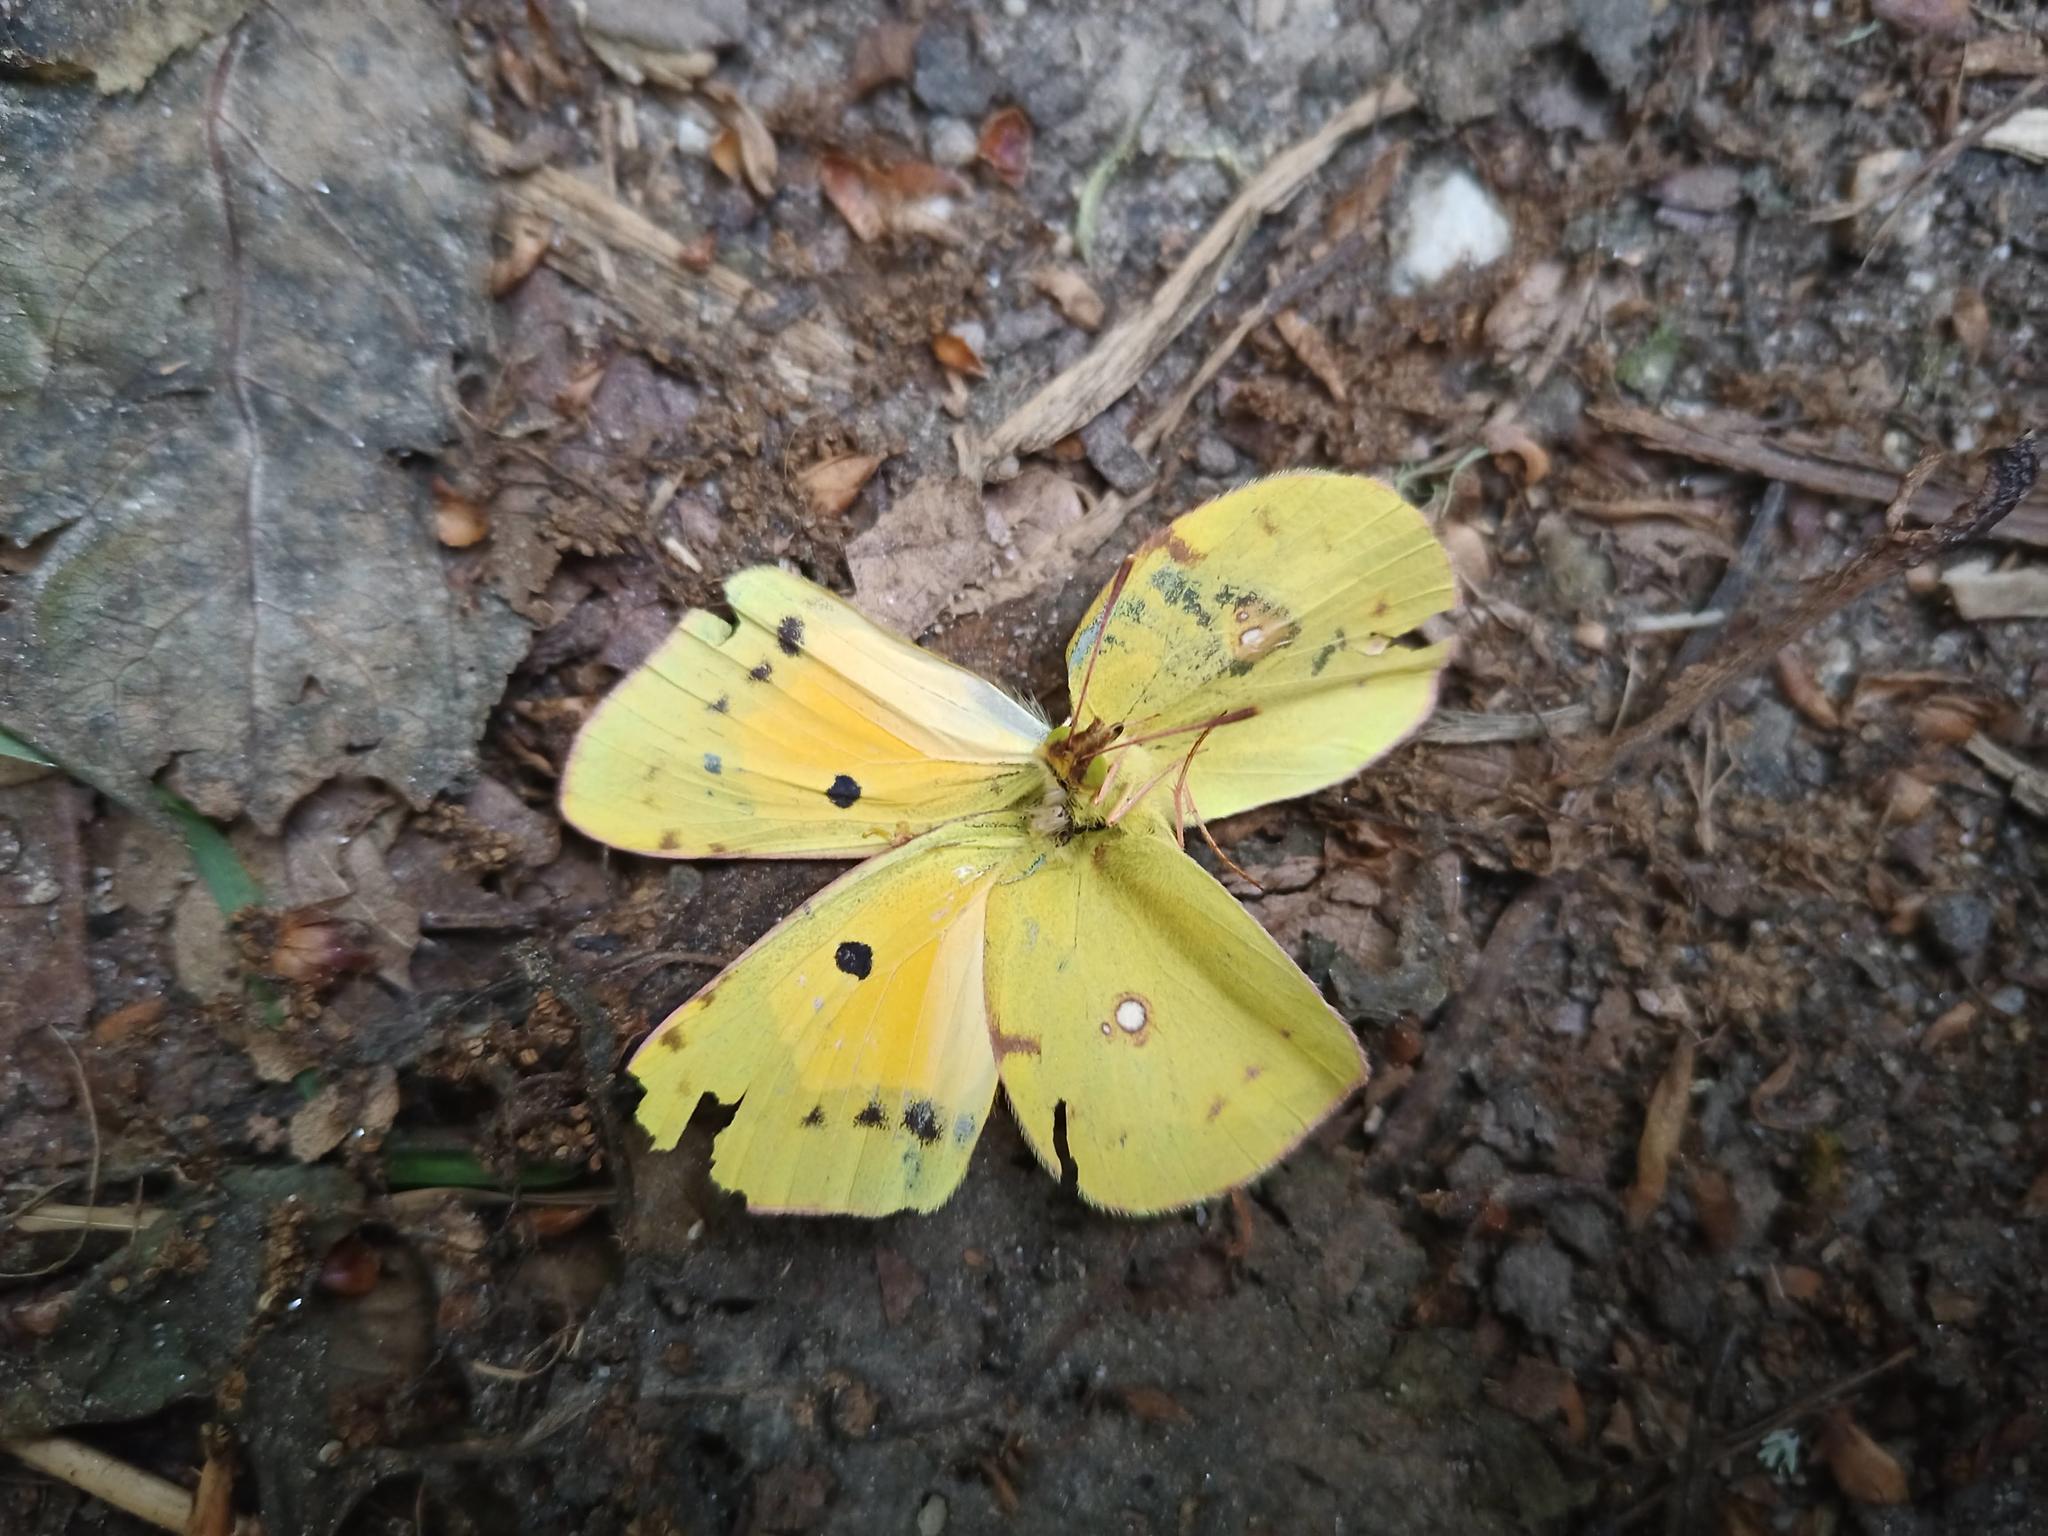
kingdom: Animalia
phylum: Arthropoda
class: Insecta
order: Lepidoptera
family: Pieridae
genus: Colias
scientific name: Colias croceus
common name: Clouded yellow
